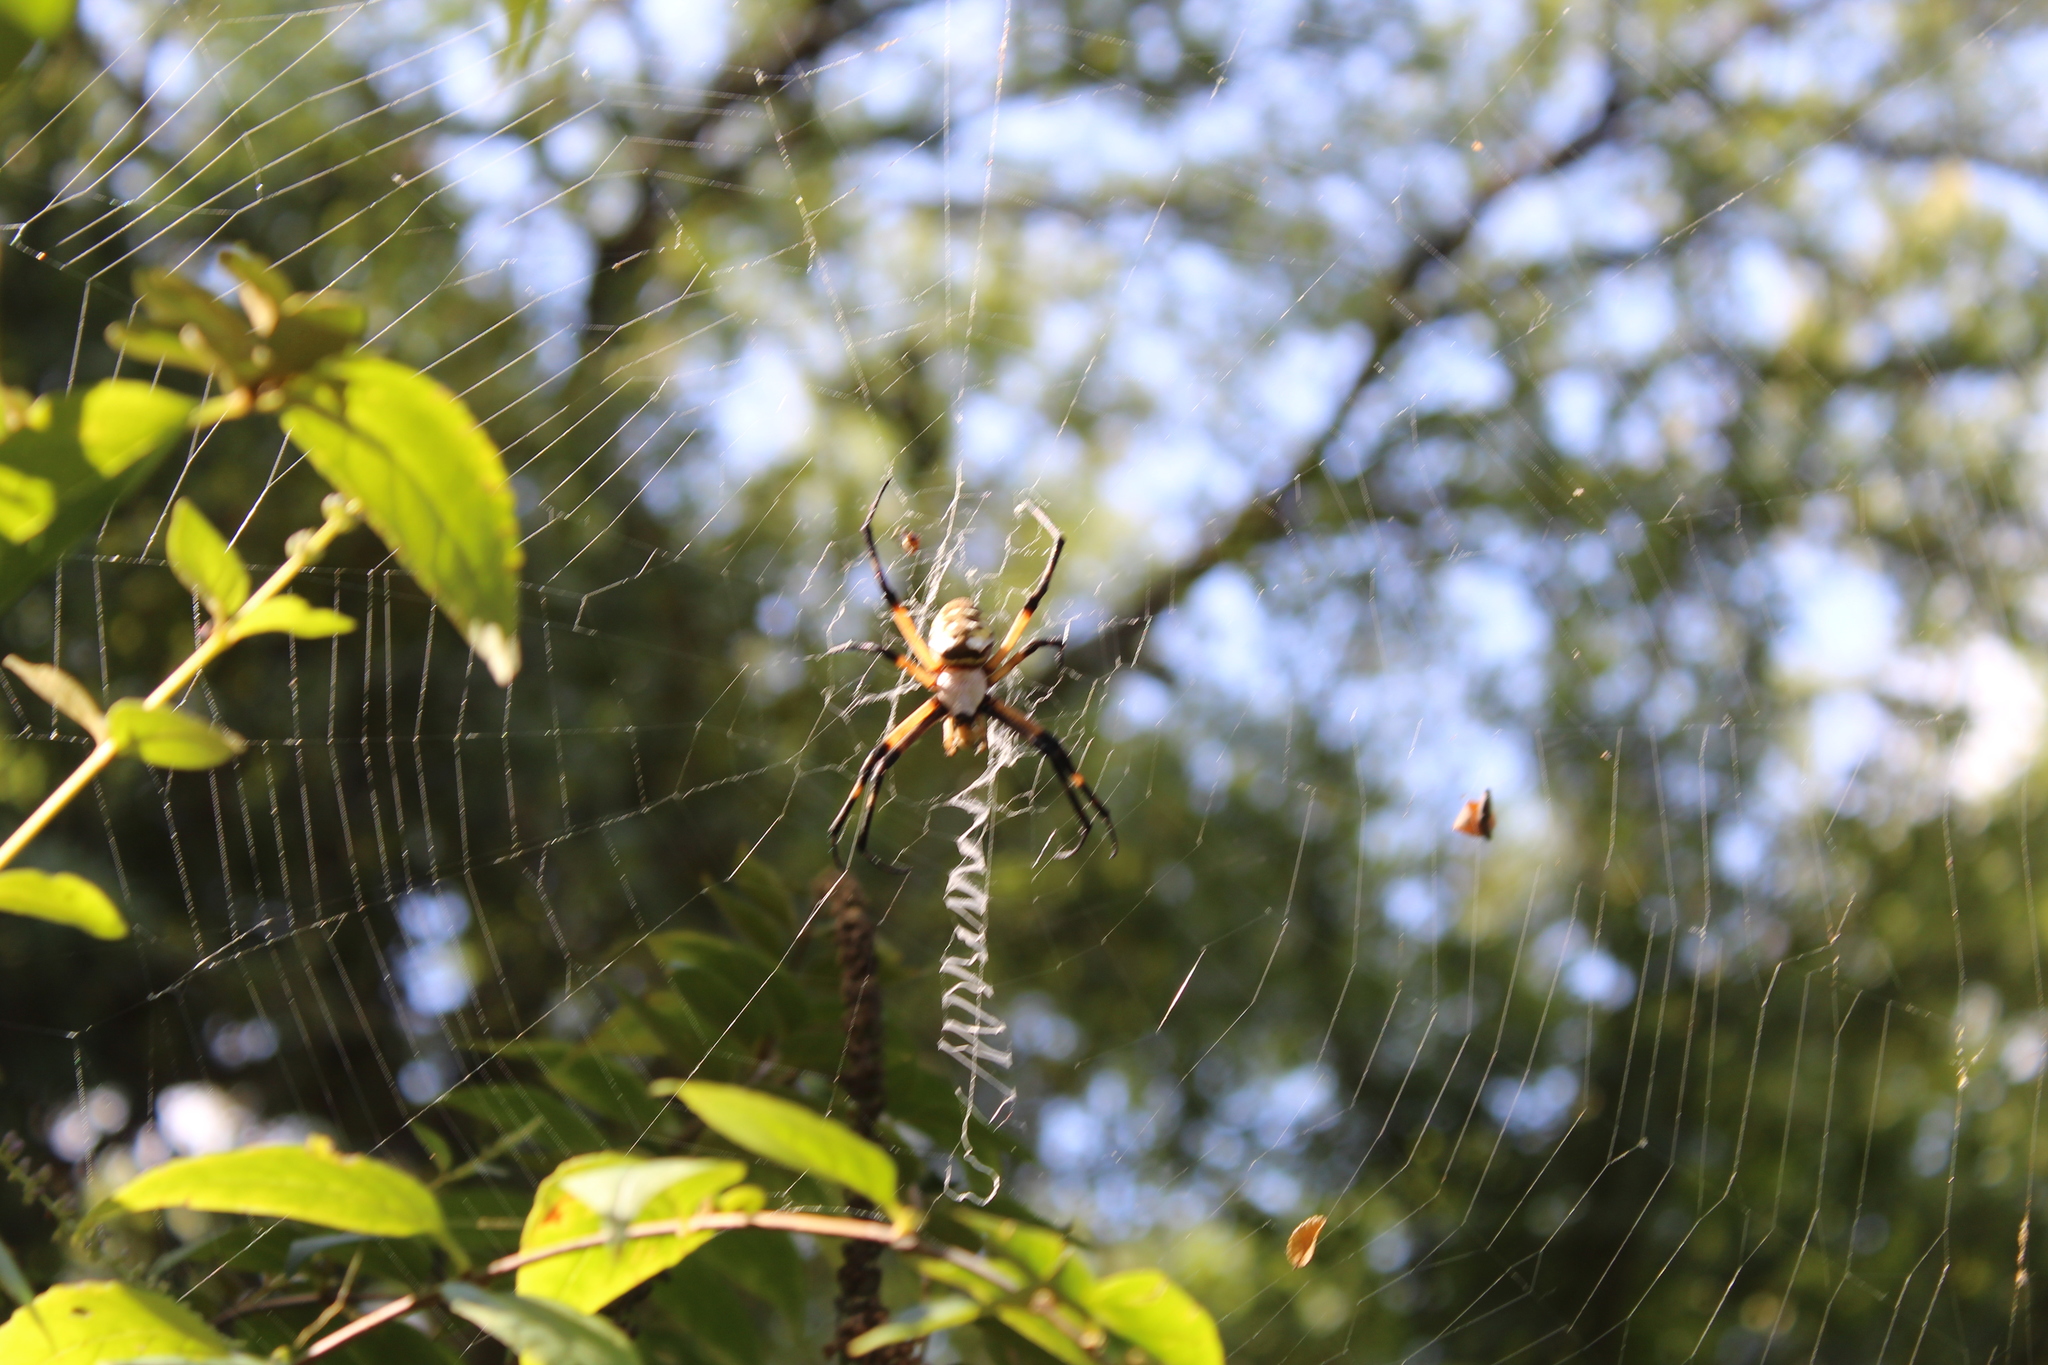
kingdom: Animalia
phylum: Arthropoda
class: Arachnida
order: Araneae
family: Araneidae
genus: Argiope
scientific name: Argiope aurantia
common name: Orb weavers
